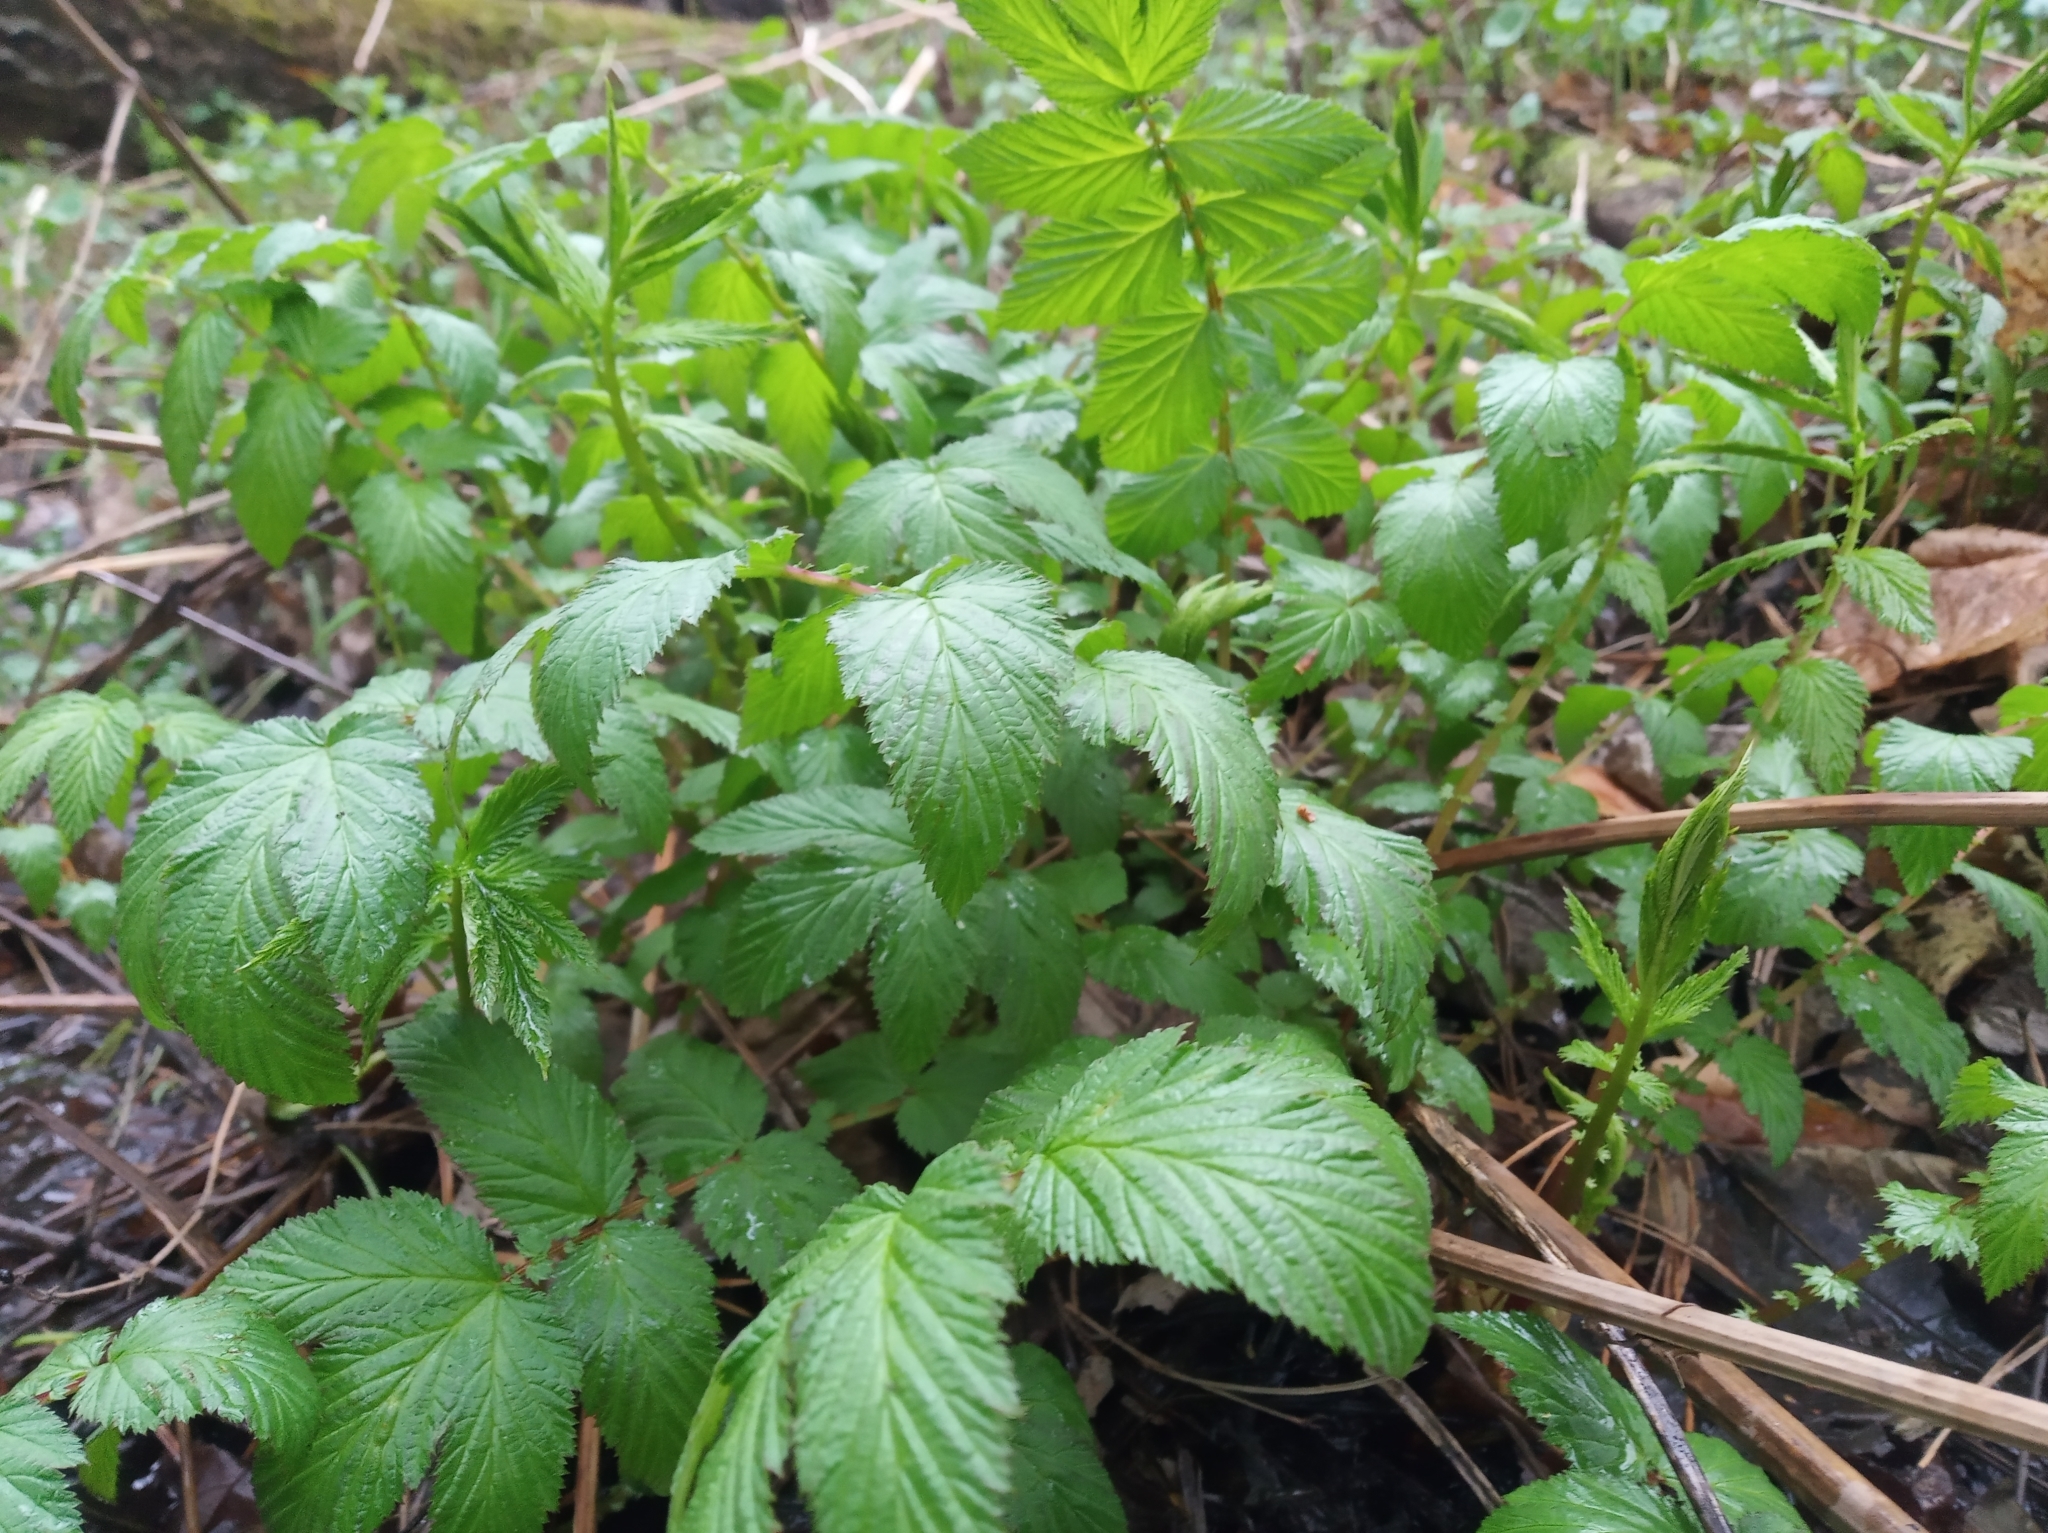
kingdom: Plantae
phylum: Tracheophyta
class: Magnoliopsida
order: Rosales
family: Rosaceae
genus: Filipendula
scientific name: Filipendula ulmaria
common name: Meadowsweet
